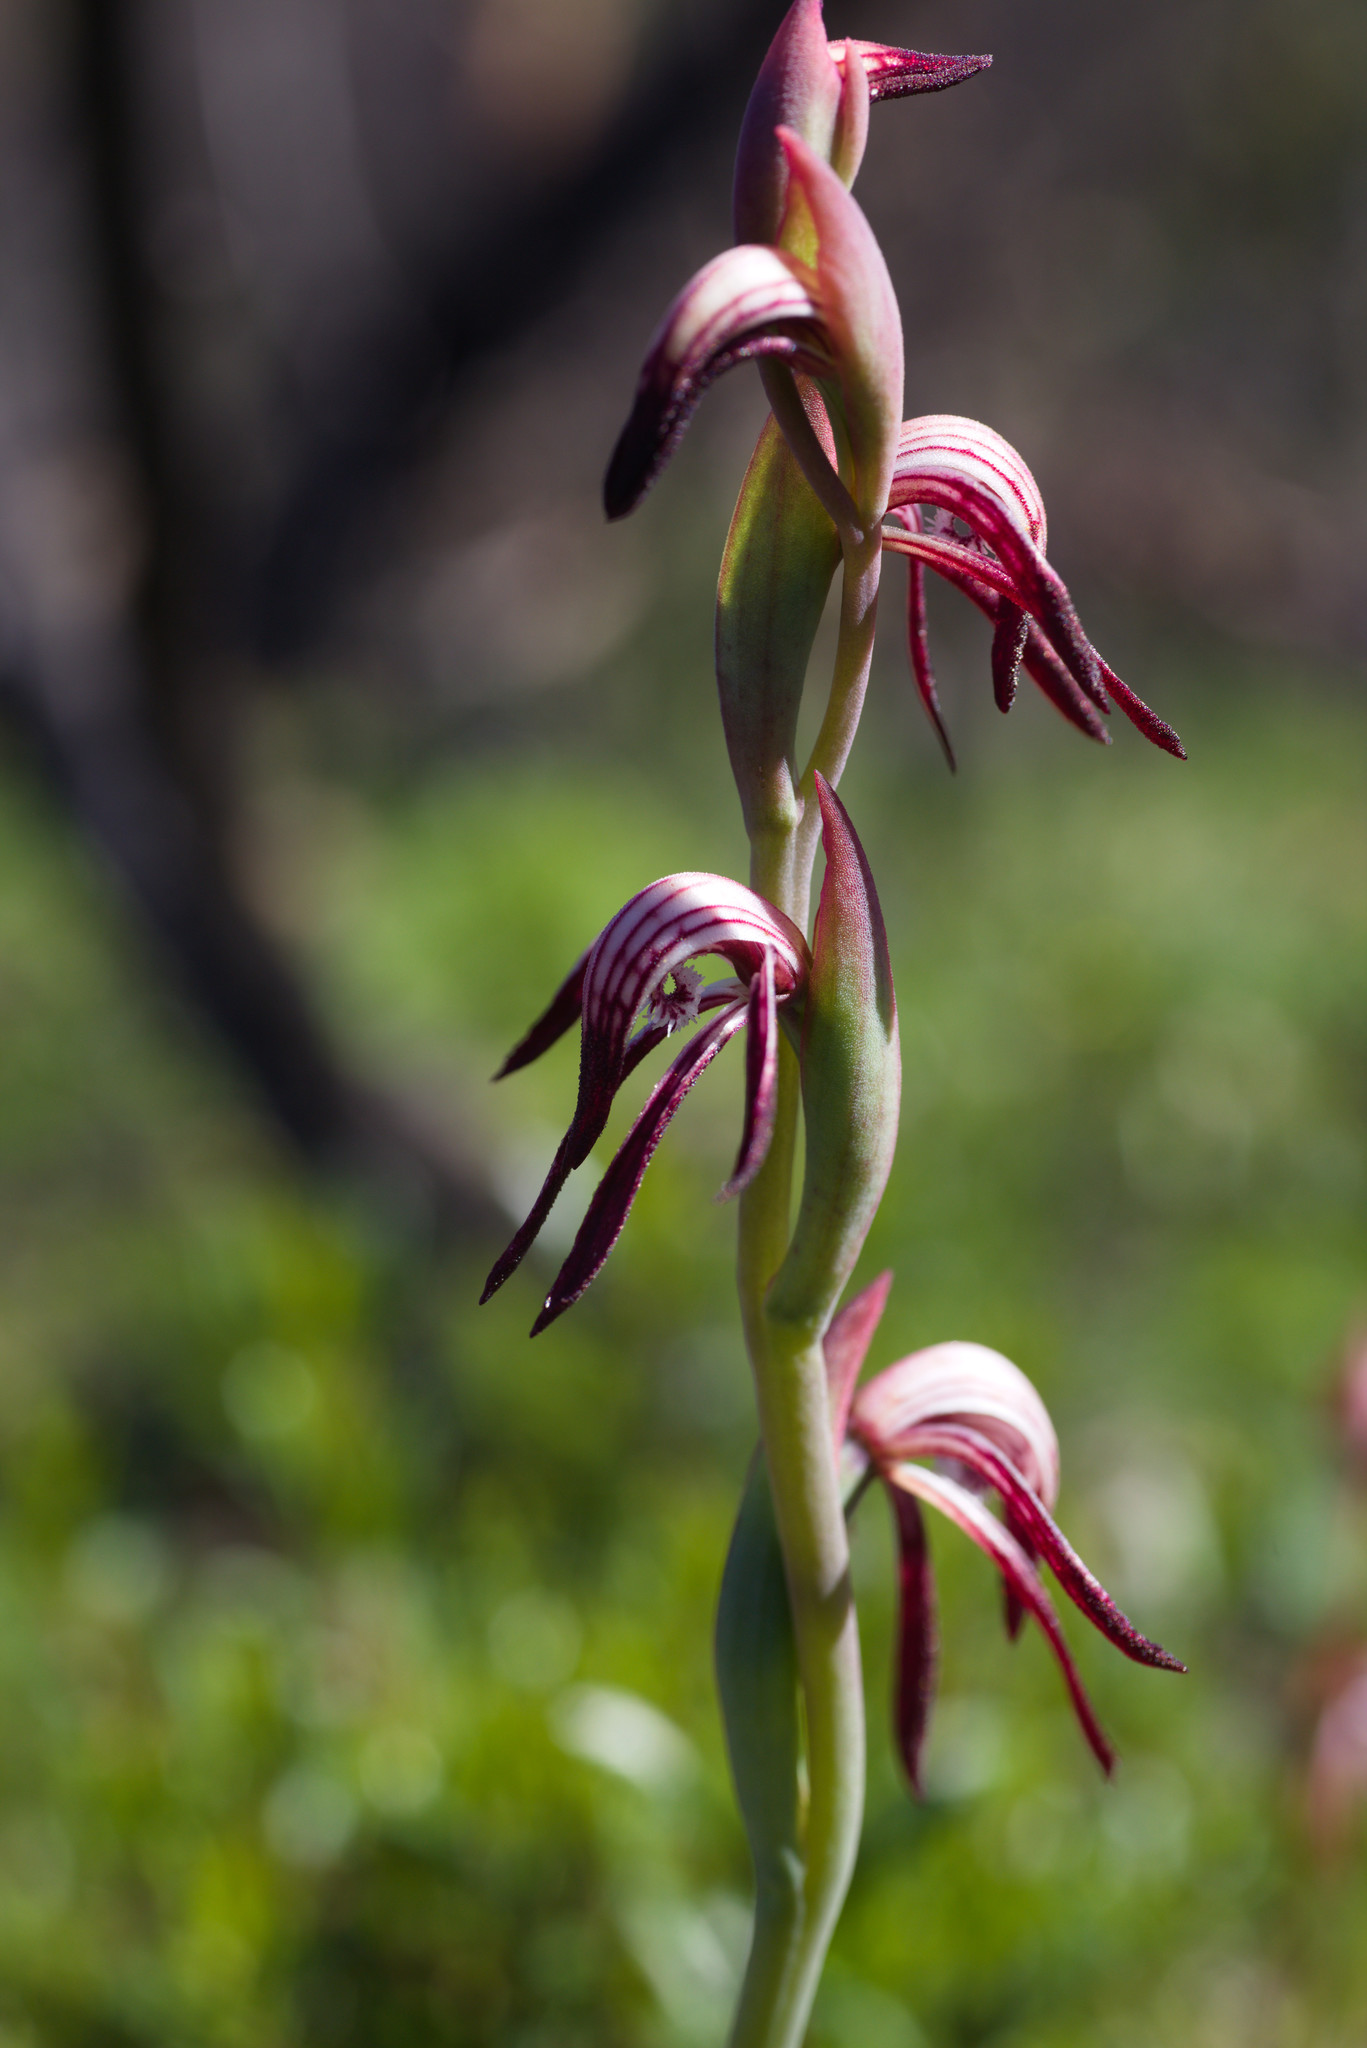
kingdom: Plantae
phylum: Tracheophyta
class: Liliopsida
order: Asparagales
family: Orchidaceae
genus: Pyrorchis
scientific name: Pyrorchis nigricans
